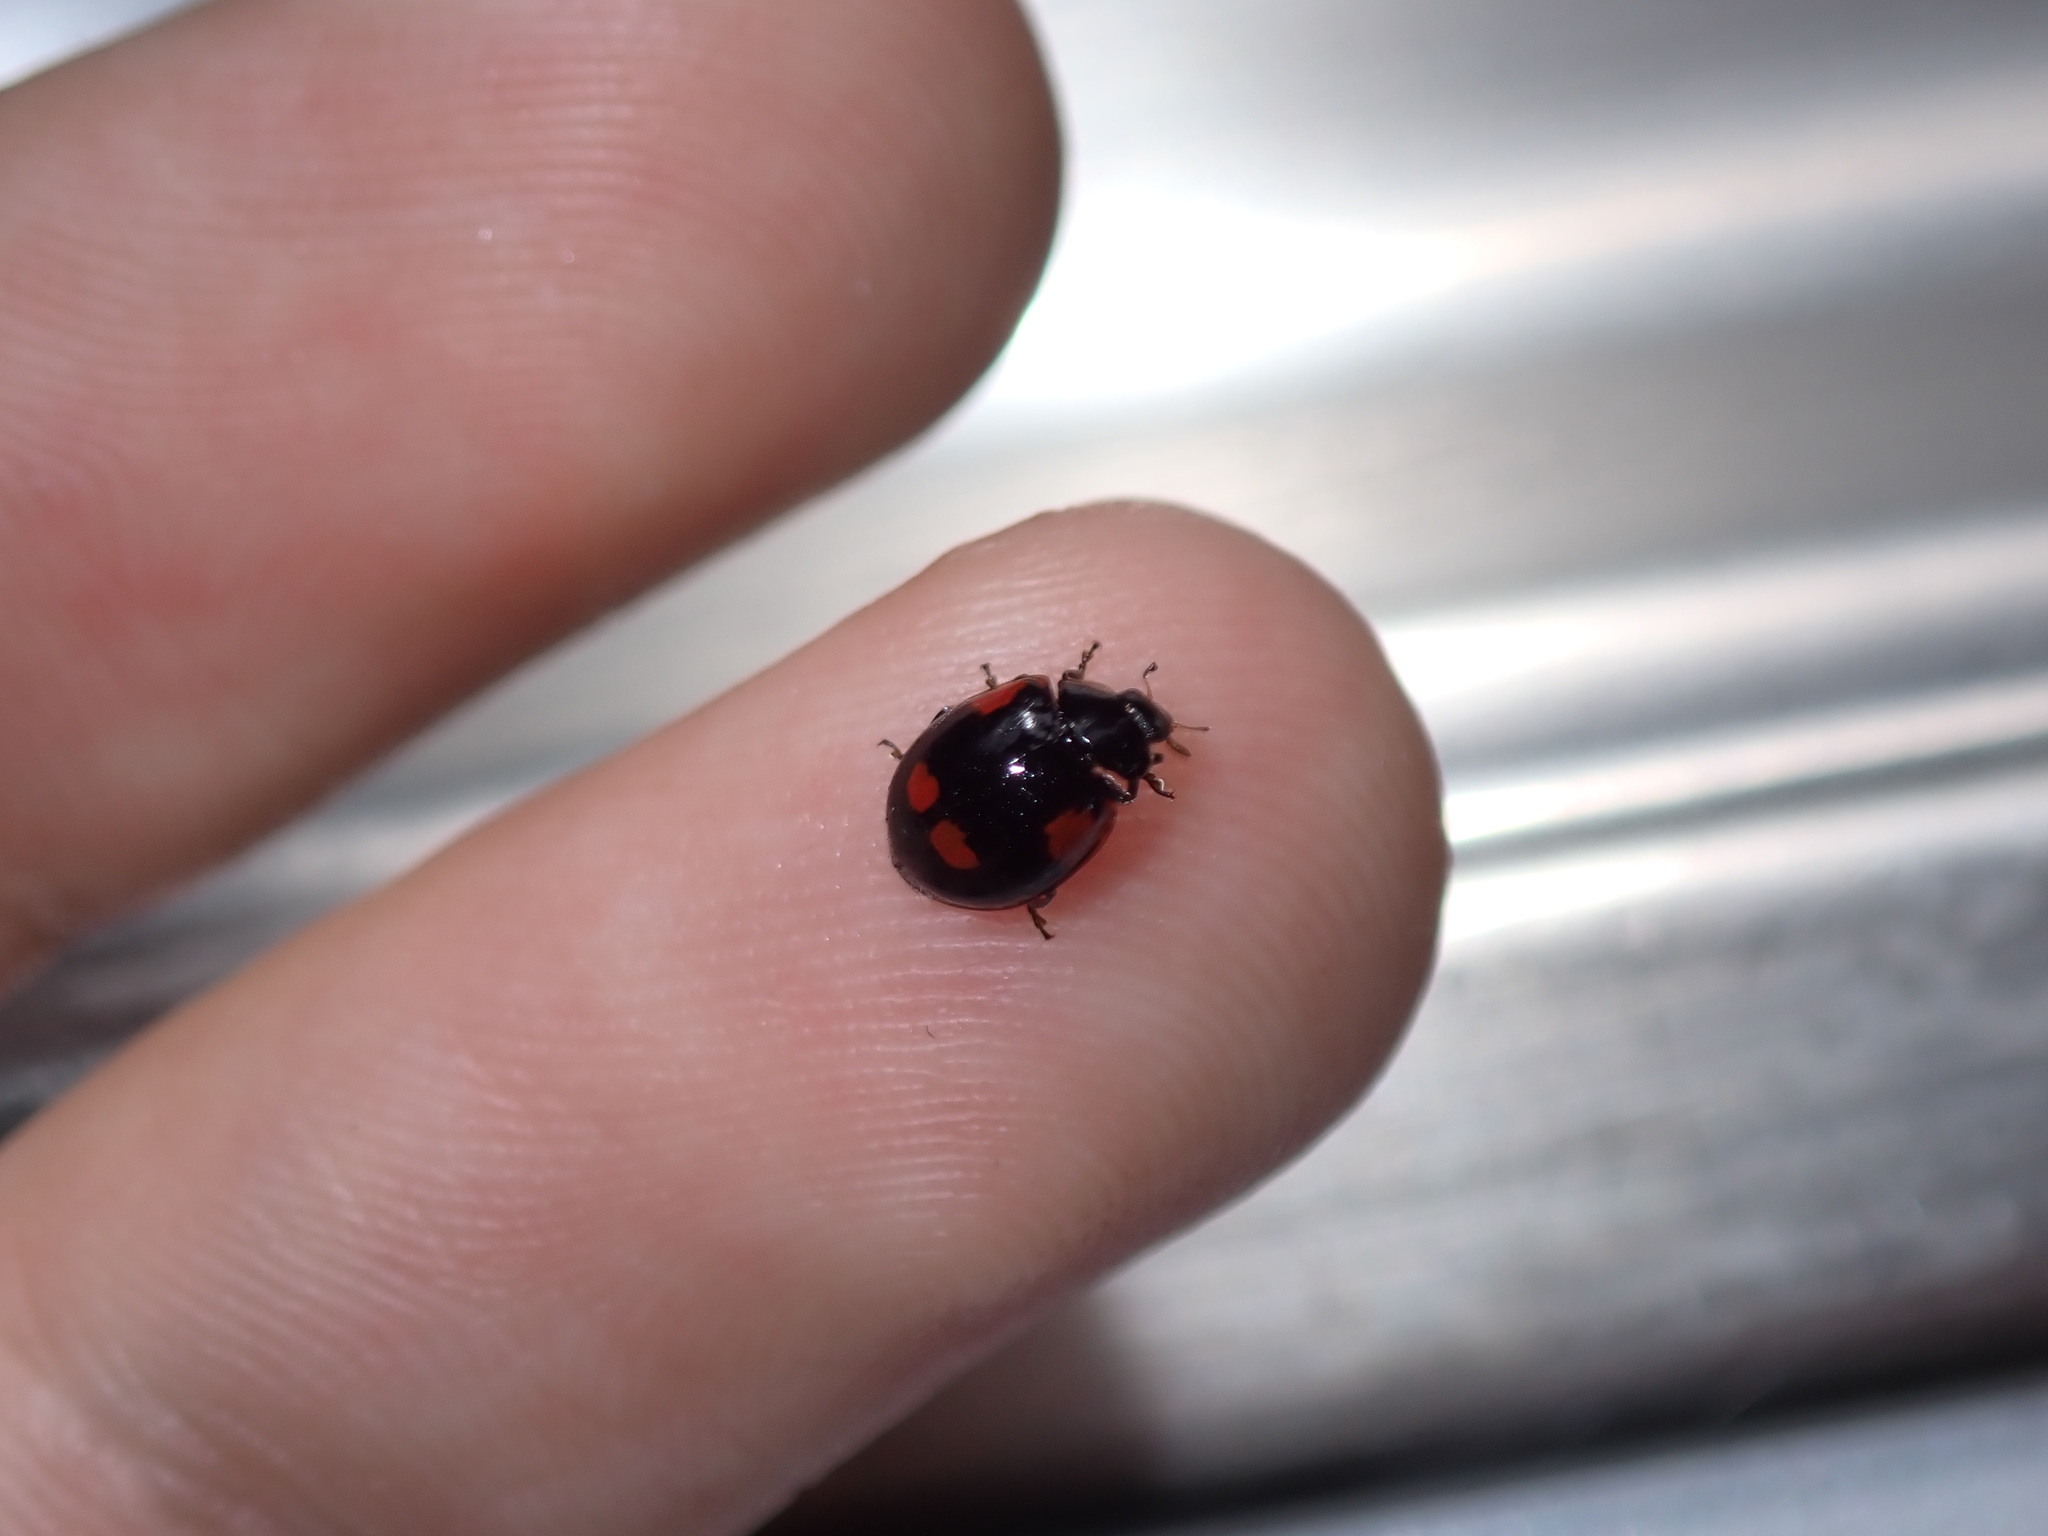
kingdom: Animalia
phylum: Arthropoda
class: Insecta
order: Coleoptera
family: Coccinellidae
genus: Adalia
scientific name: Adalia bipunctata
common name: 2-spot ladybird
